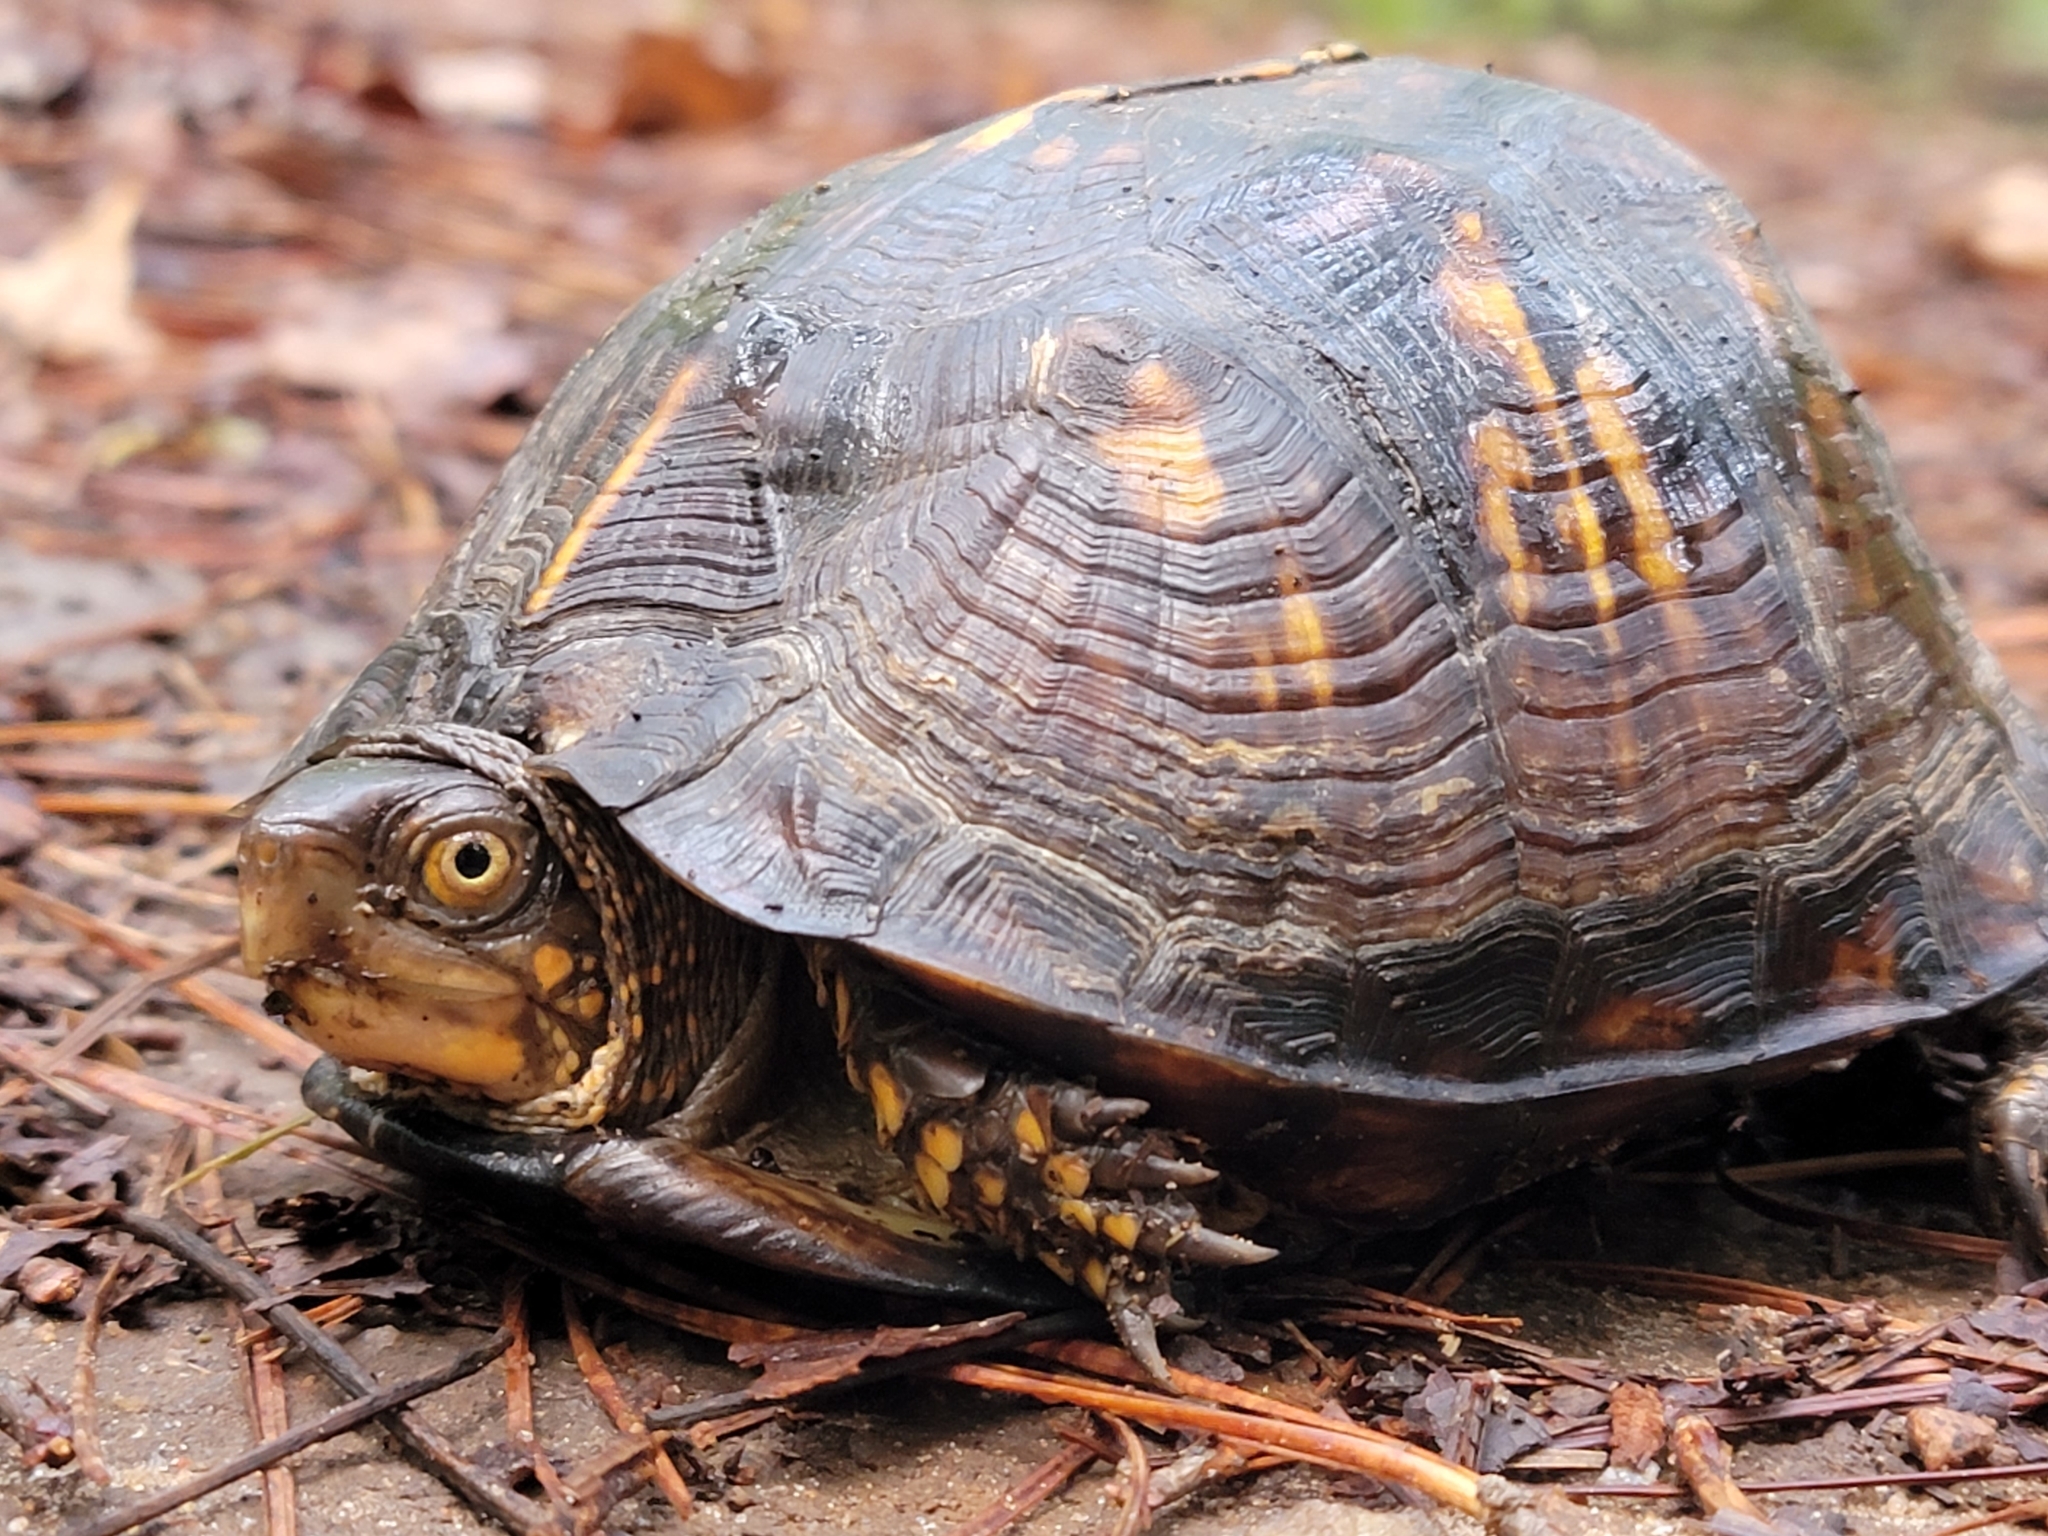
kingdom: Animalia
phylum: Chordata
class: Testudines
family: Emydidae
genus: Terrapene
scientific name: Terrapene carolina
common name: Common box turtle
